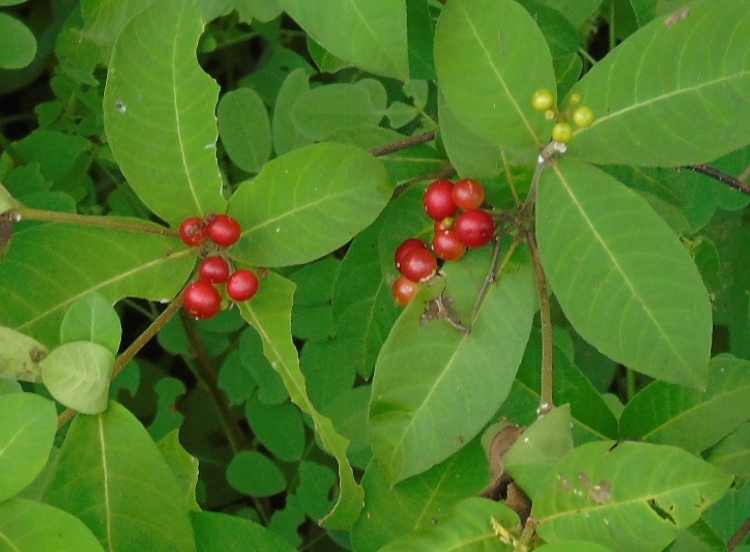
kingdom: Plantae
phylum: Tracheophyta
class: Magnoliopsida
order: Gentianales
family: Apocynaceae
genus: Rauvolfia
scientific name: Rauvolfia tetraphylla
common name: Four-leaf devil-pepper
